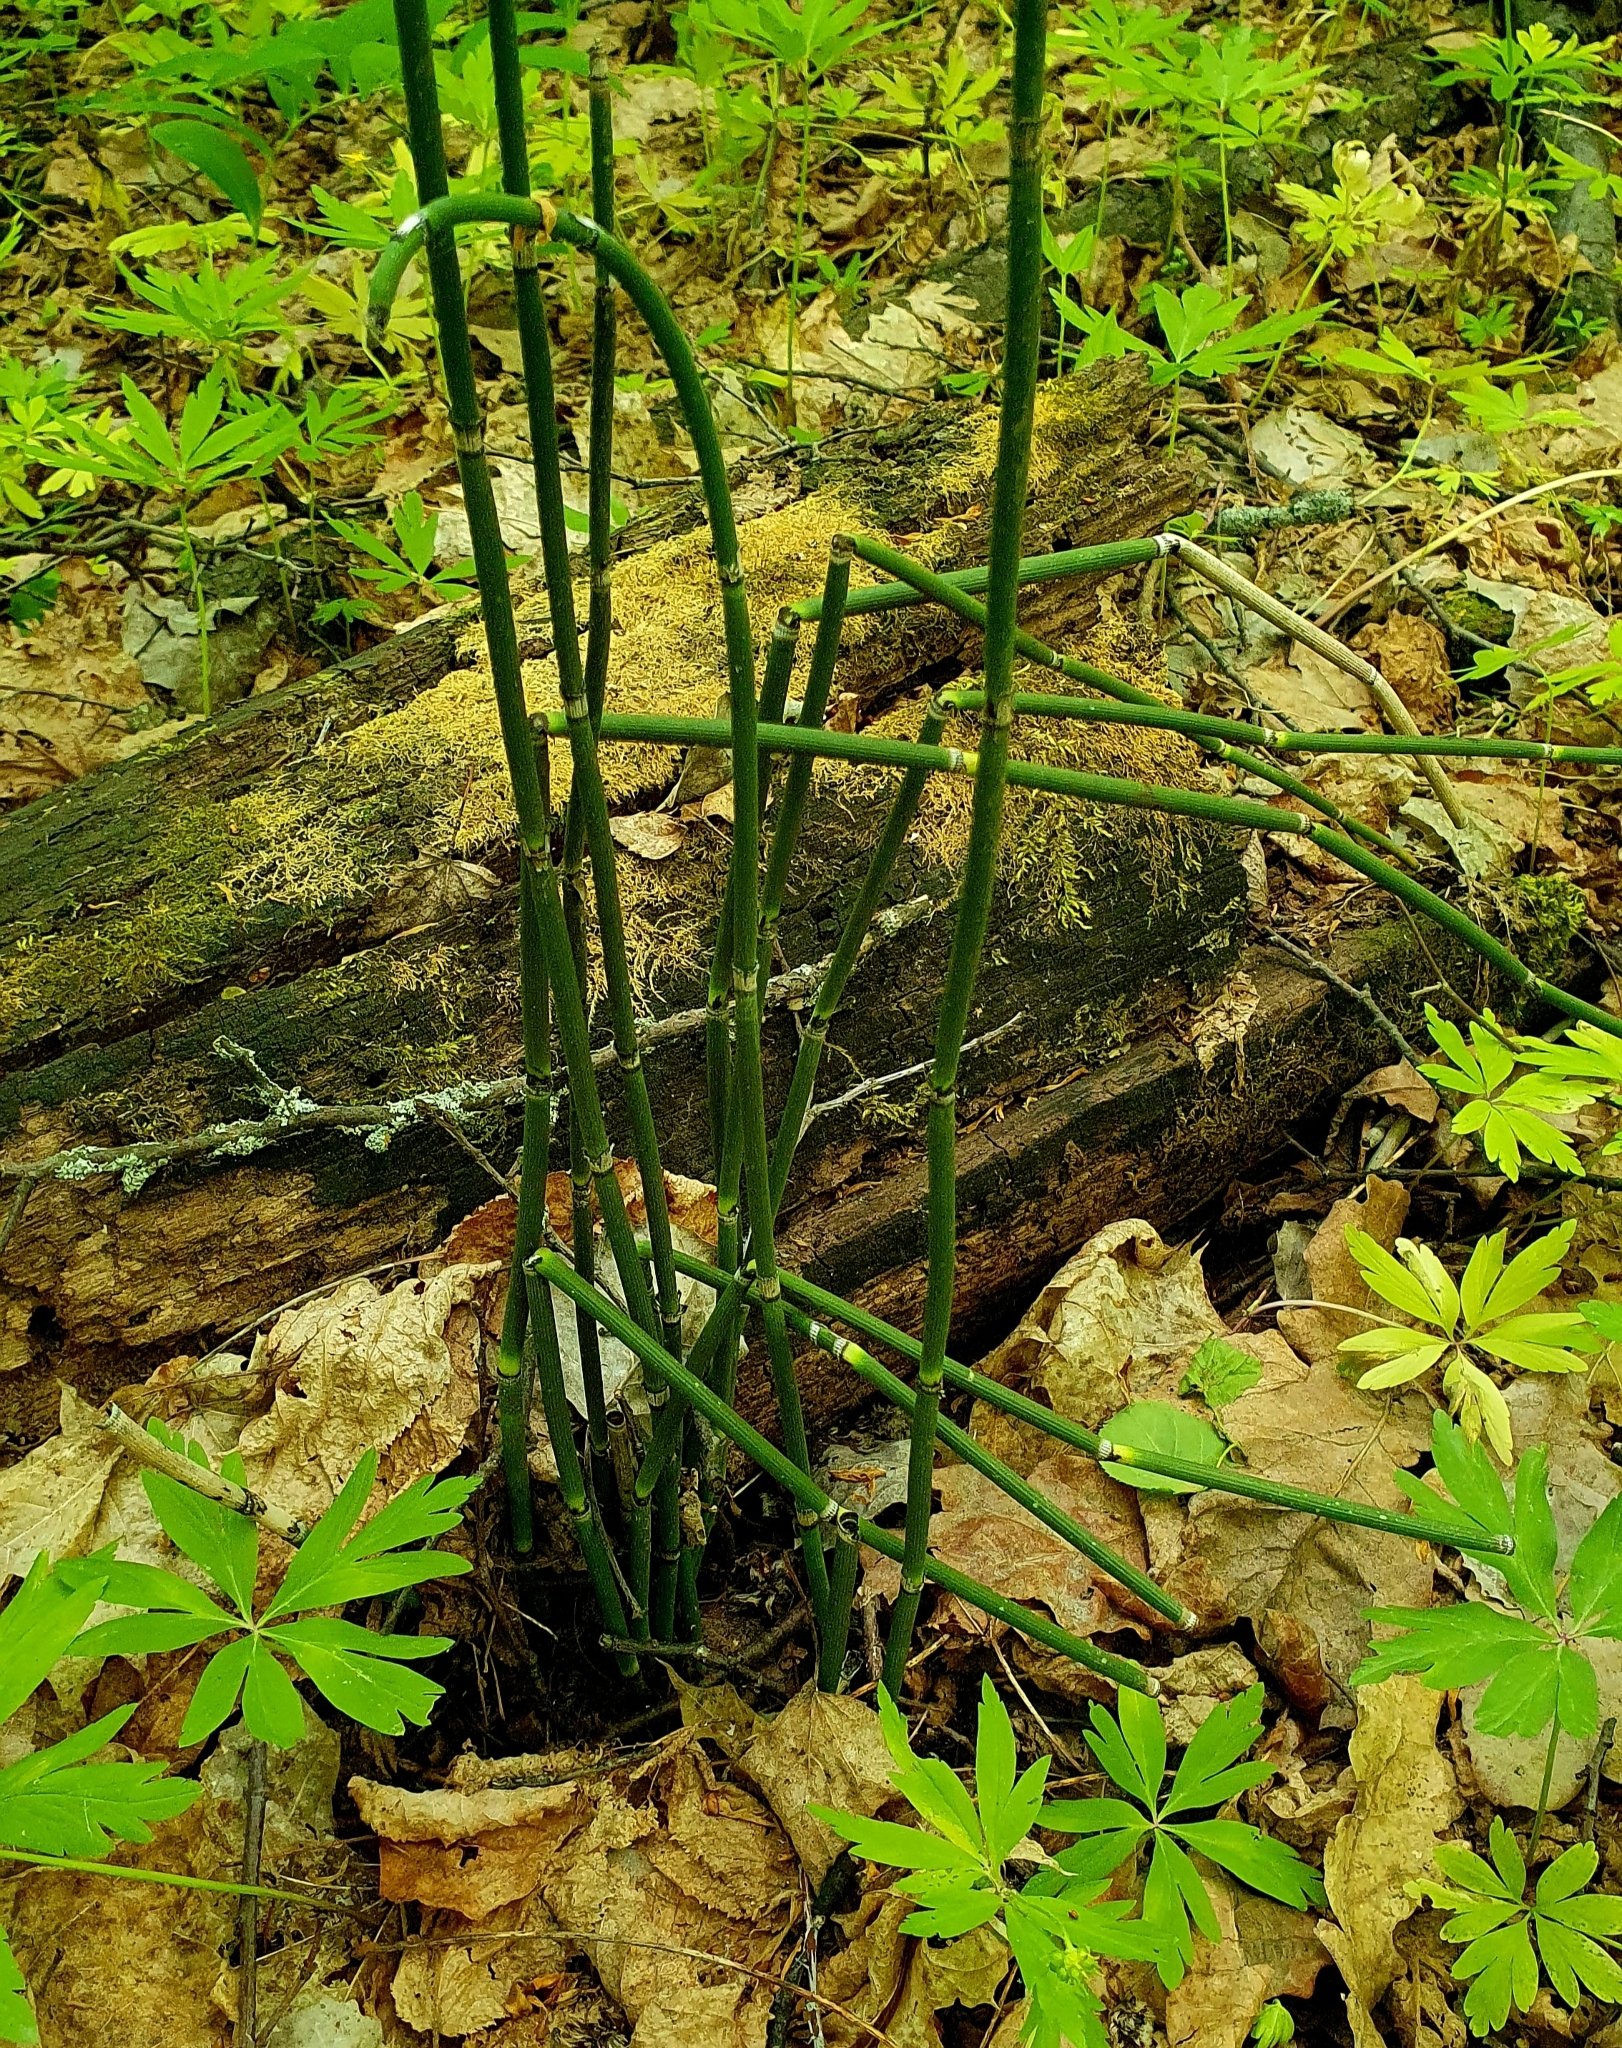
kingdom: Plantae
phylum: Tracheophyta
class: Polypodiopsida
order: Equisetales
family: Equisetaceae
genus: Equisetum
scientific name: Equisetum hyemale
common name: Rough horsetail
